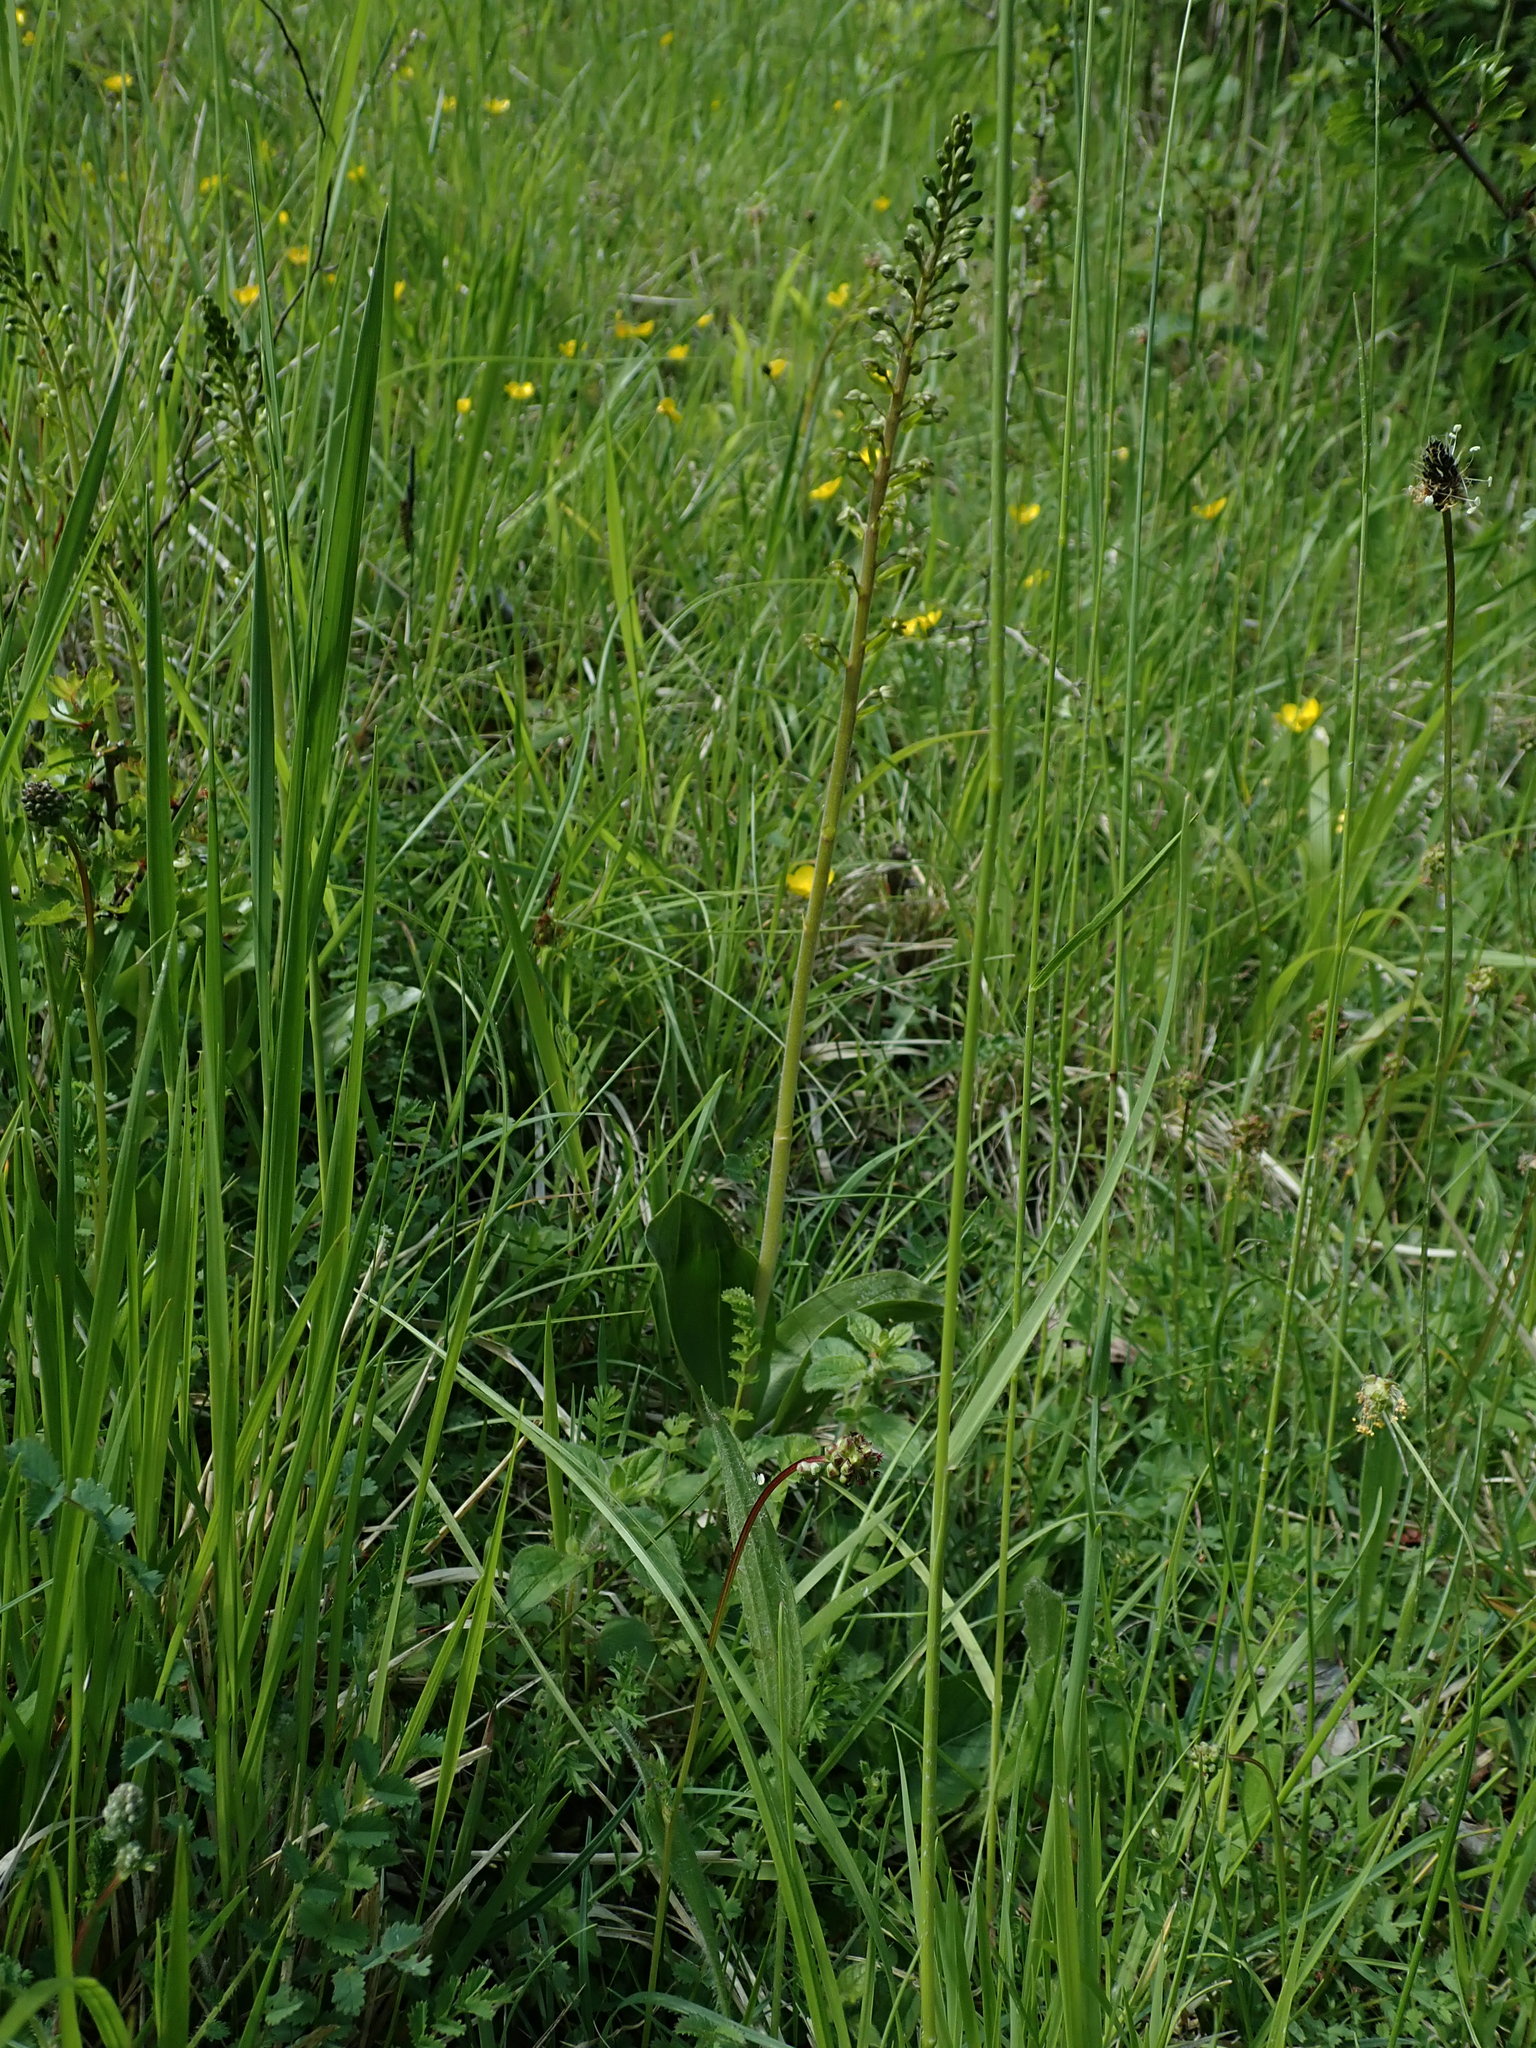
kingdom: Plantae
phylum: Tracheophyta
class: Liliopsida
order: Asparagales
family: Orchidaceae
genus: Neottia
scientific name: Neottia ovata
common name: Common twayblade
